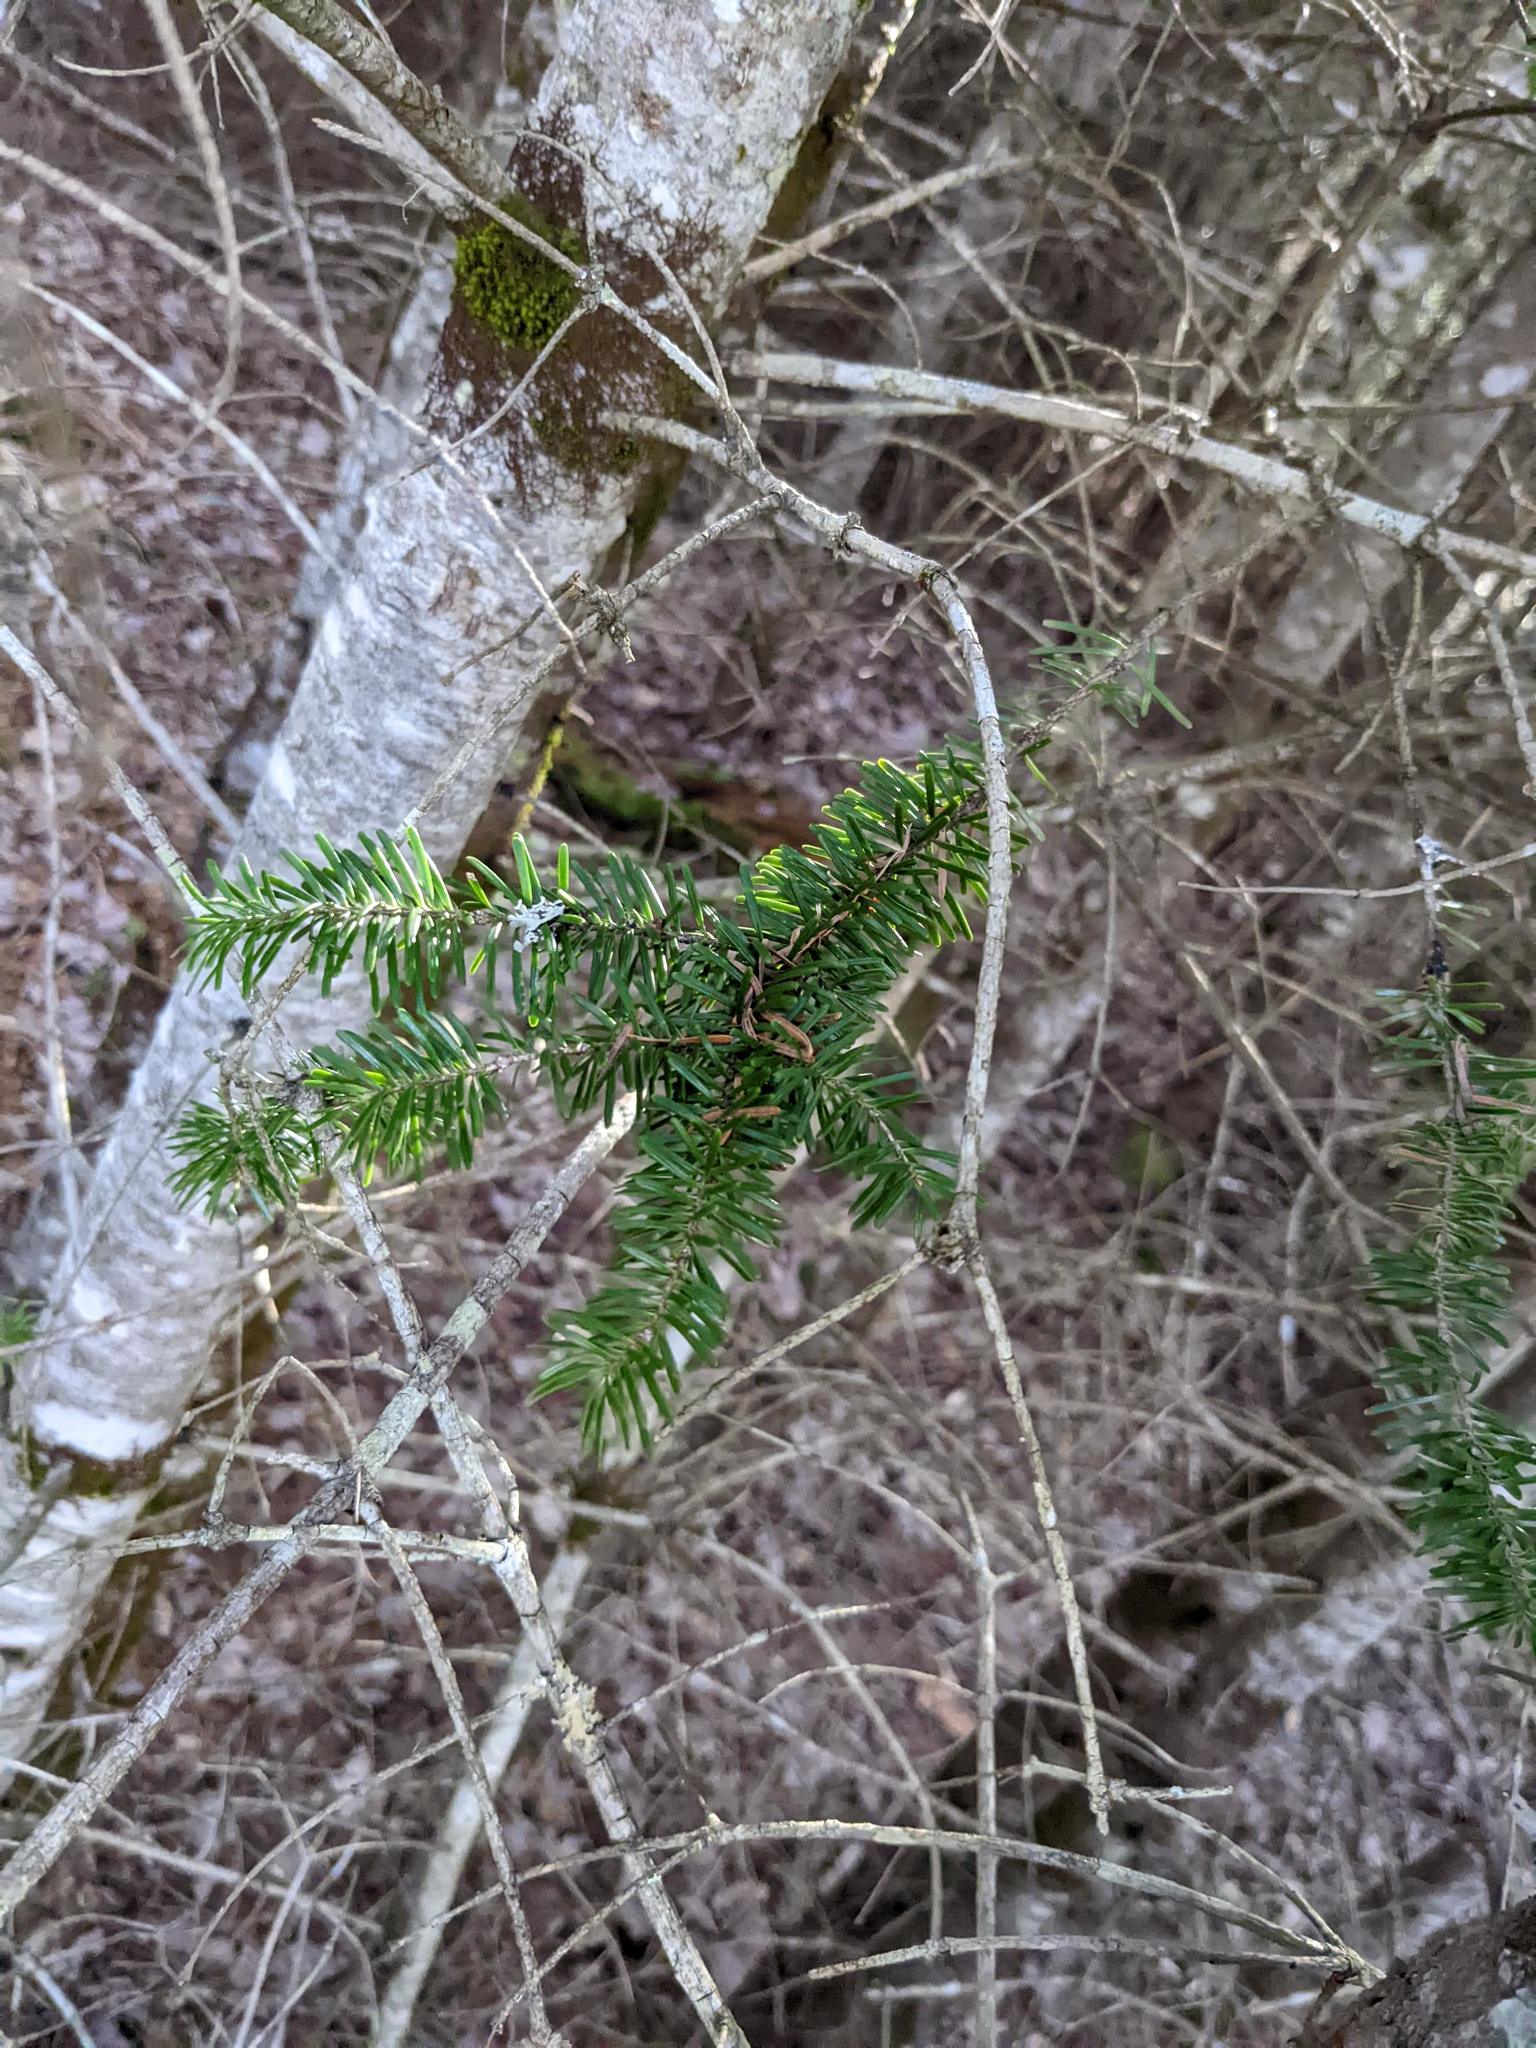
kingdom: Plantae
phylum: Tracheophyta
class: Pinopsida
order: Pinales
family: Pinaceae
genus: Tsuga
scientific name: Tsuga canadensis
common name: Eastern hemlock
